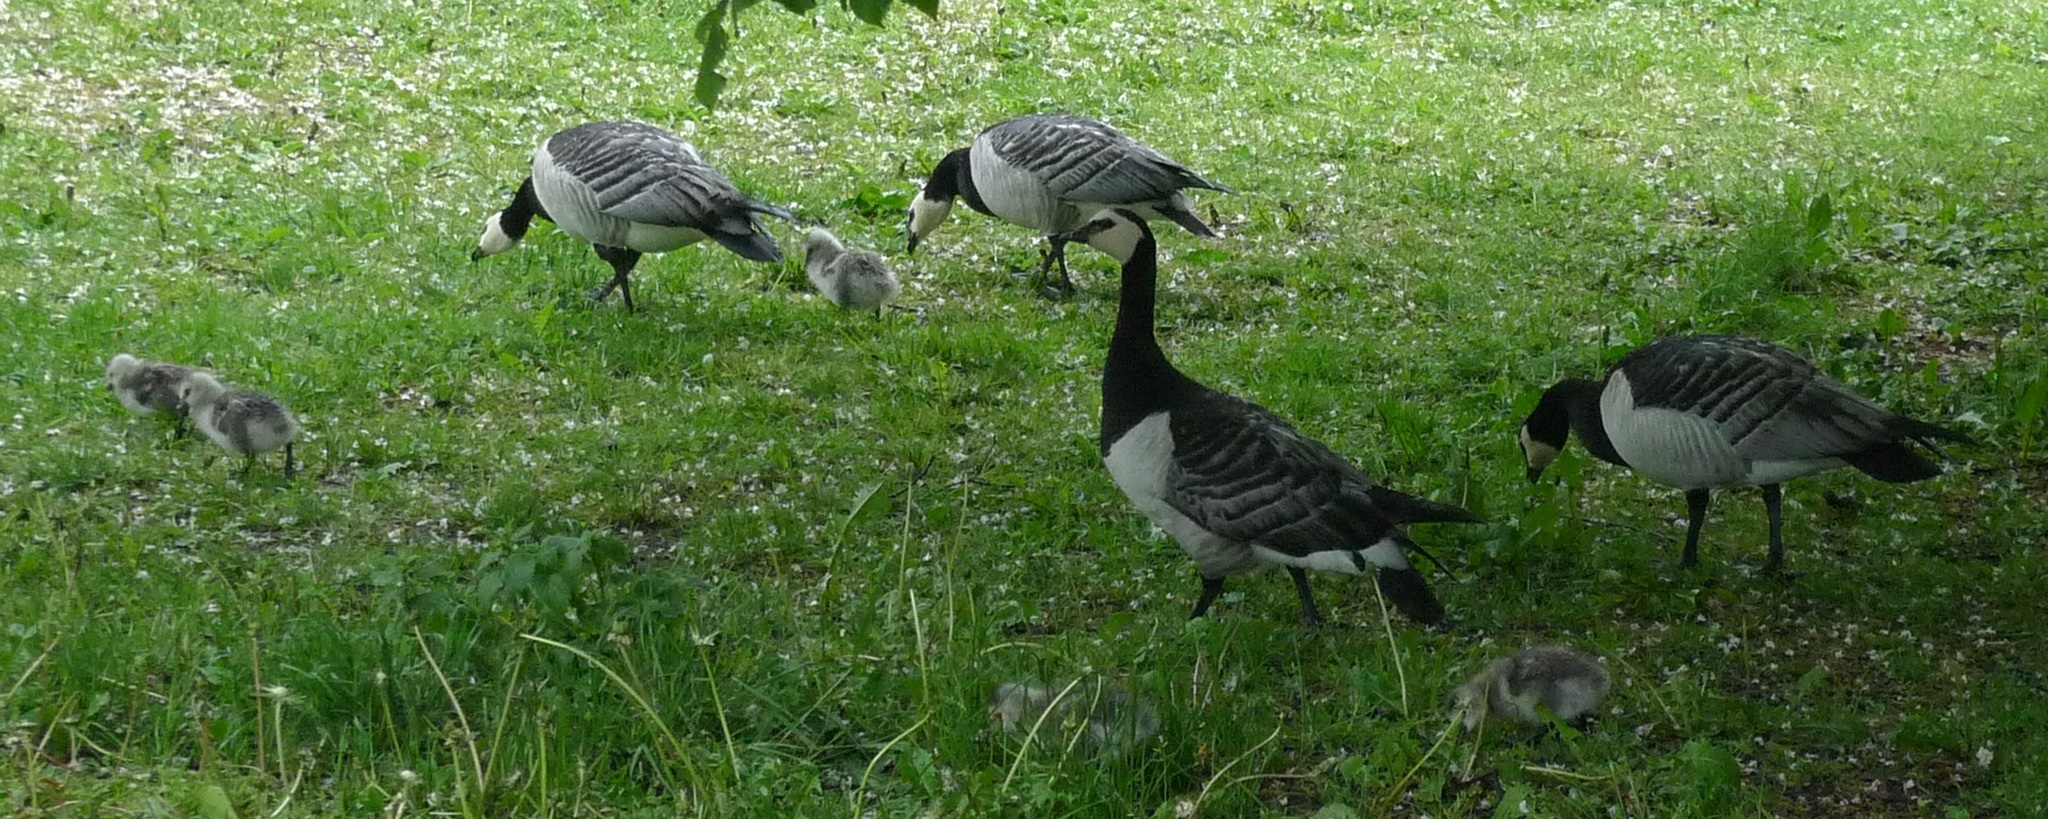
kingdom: Animalia
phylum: Chordata
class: Aves
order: Anseriformes
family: Anatidae
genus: Branta
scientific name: Branta leucopsis
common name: Barnacle goose
